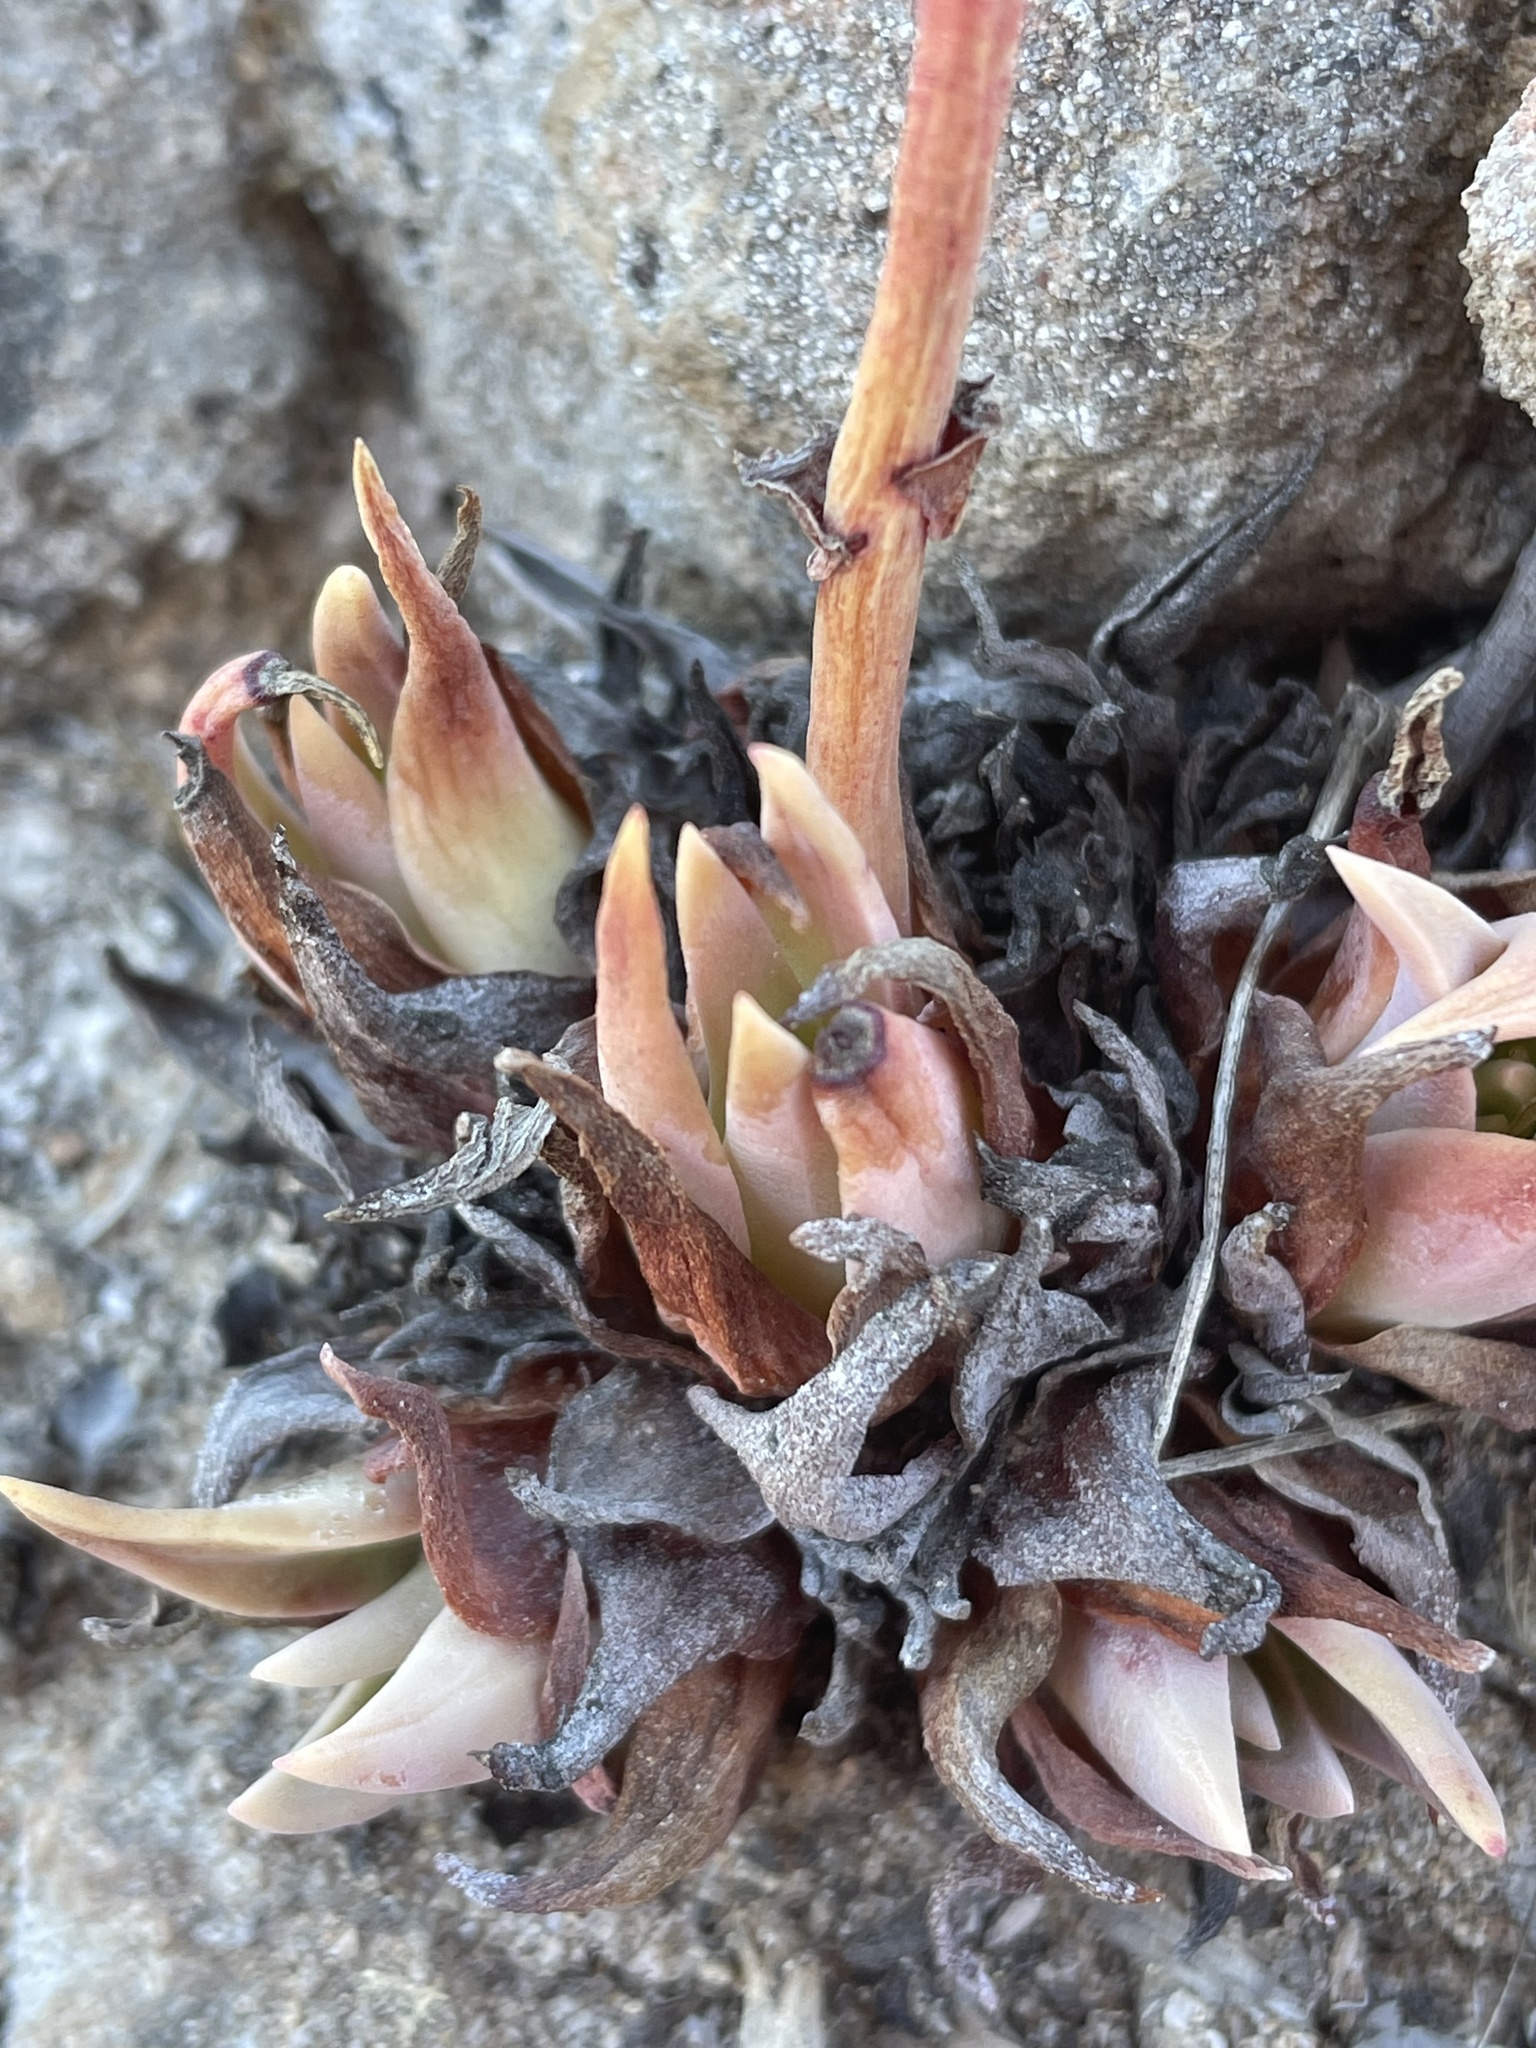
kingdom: Plantae
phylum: Tracheophyta
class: Magnoliopsida
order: Saxifragales
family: Crassulaceae
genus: Dudleya
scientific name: Dudleya caespitosa
